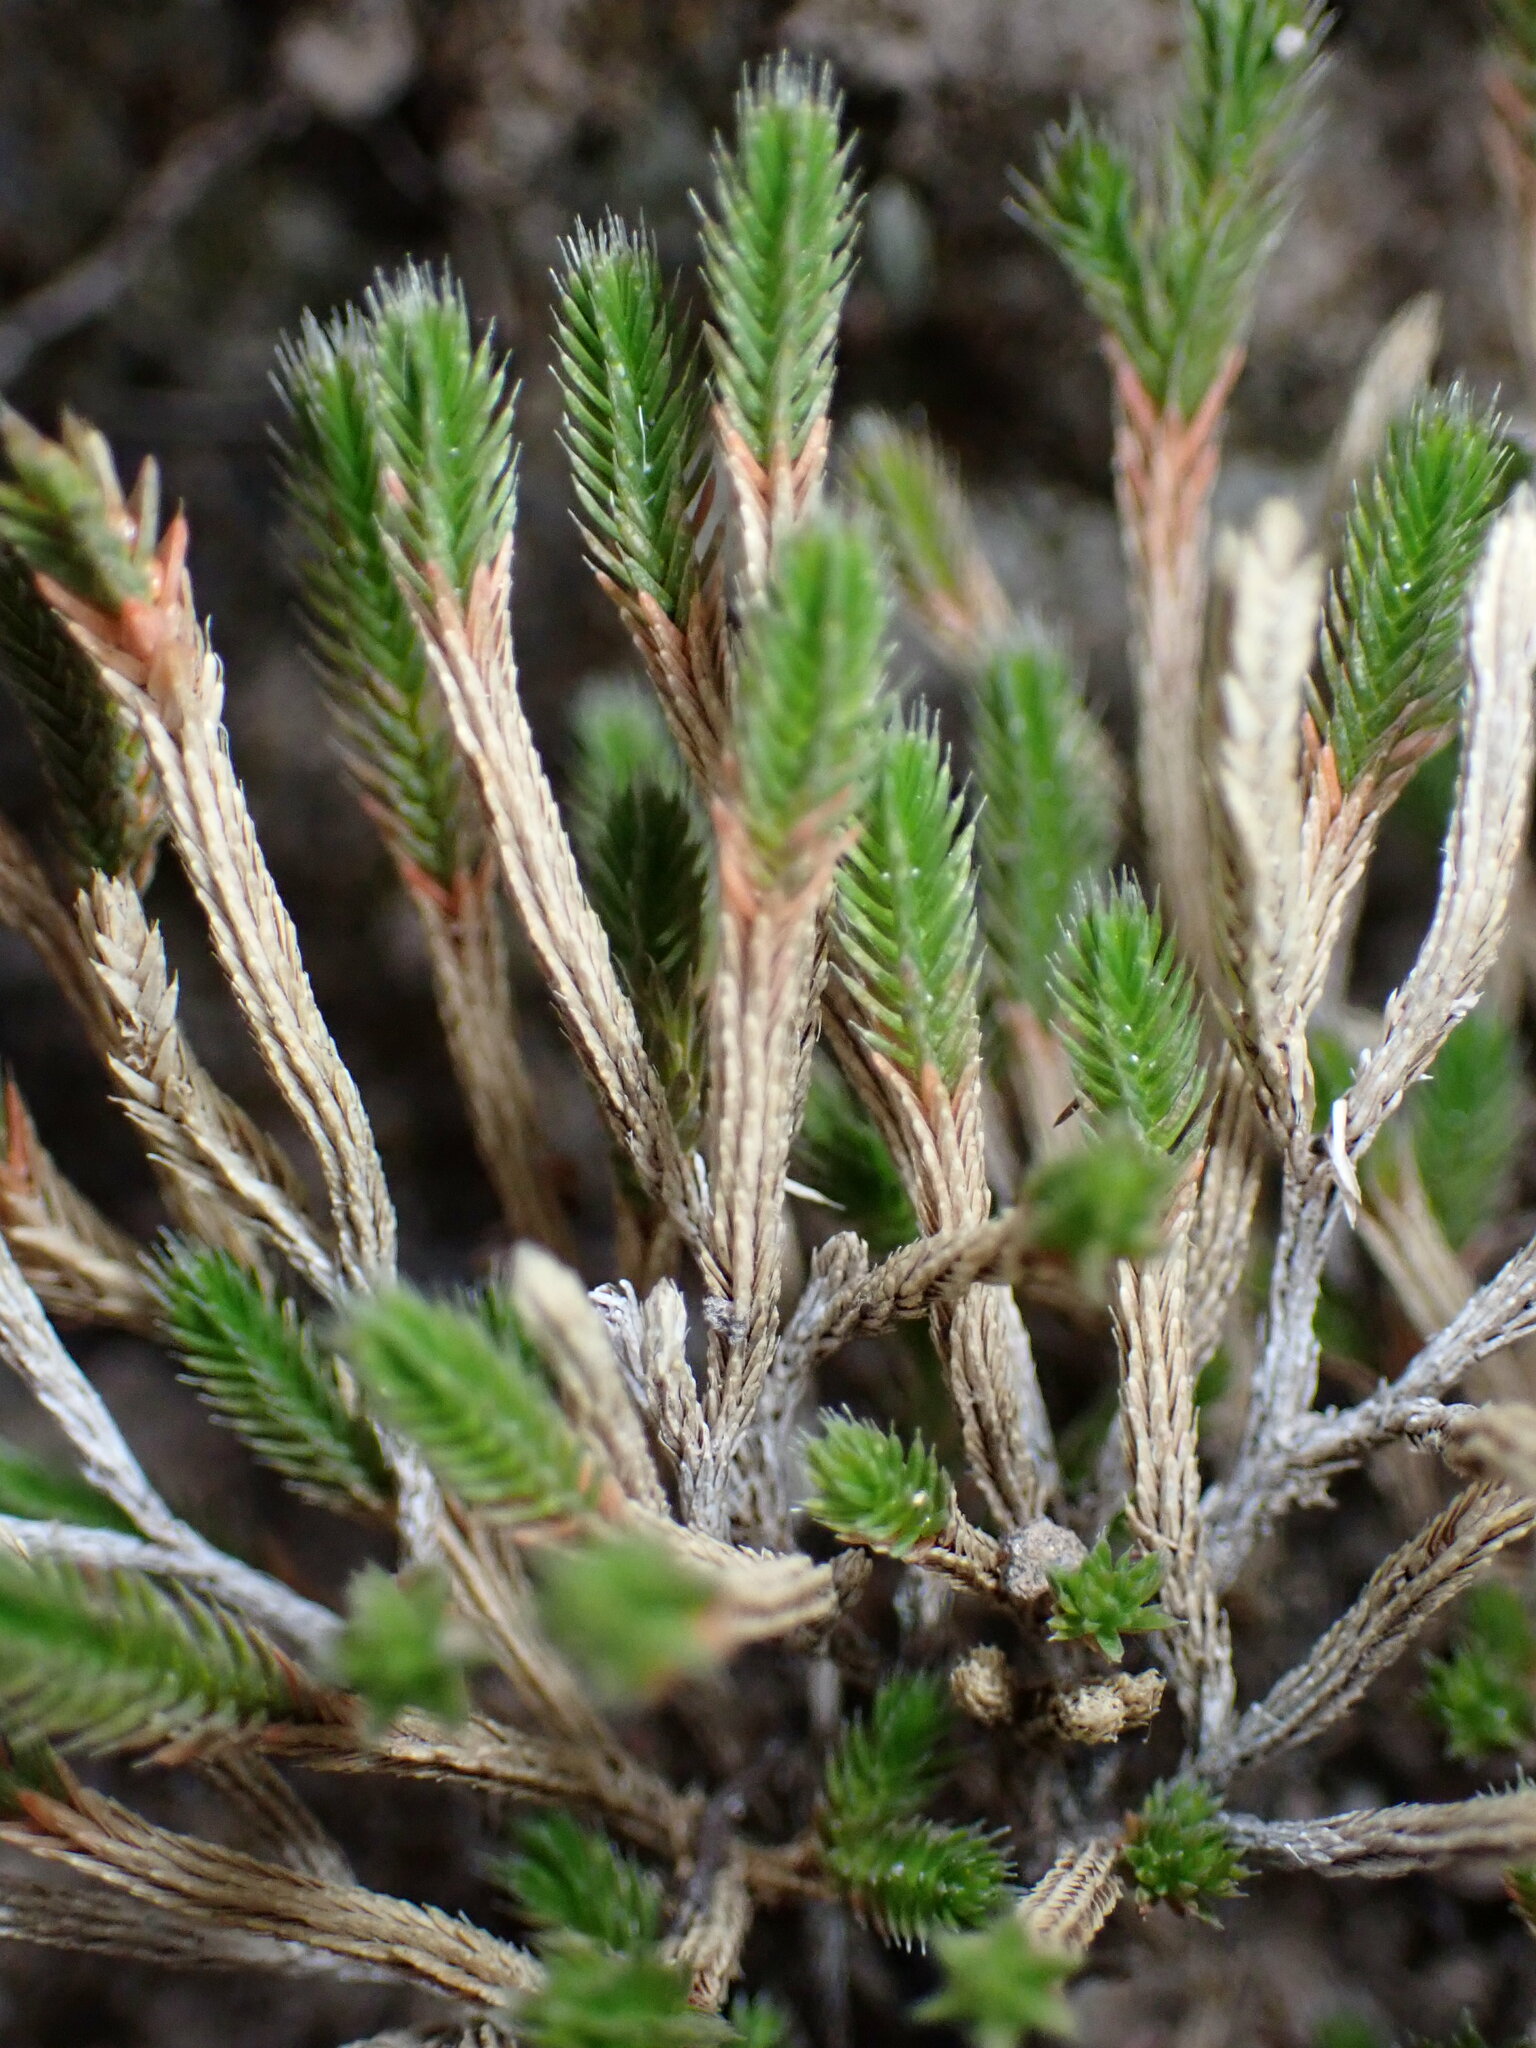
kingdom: Plantae
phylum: Tracheophyta
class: Lycopodiopsida
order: Selaginellales
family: Selaginellaceae
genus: Selaginella
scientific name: Selaginella bigelovii
